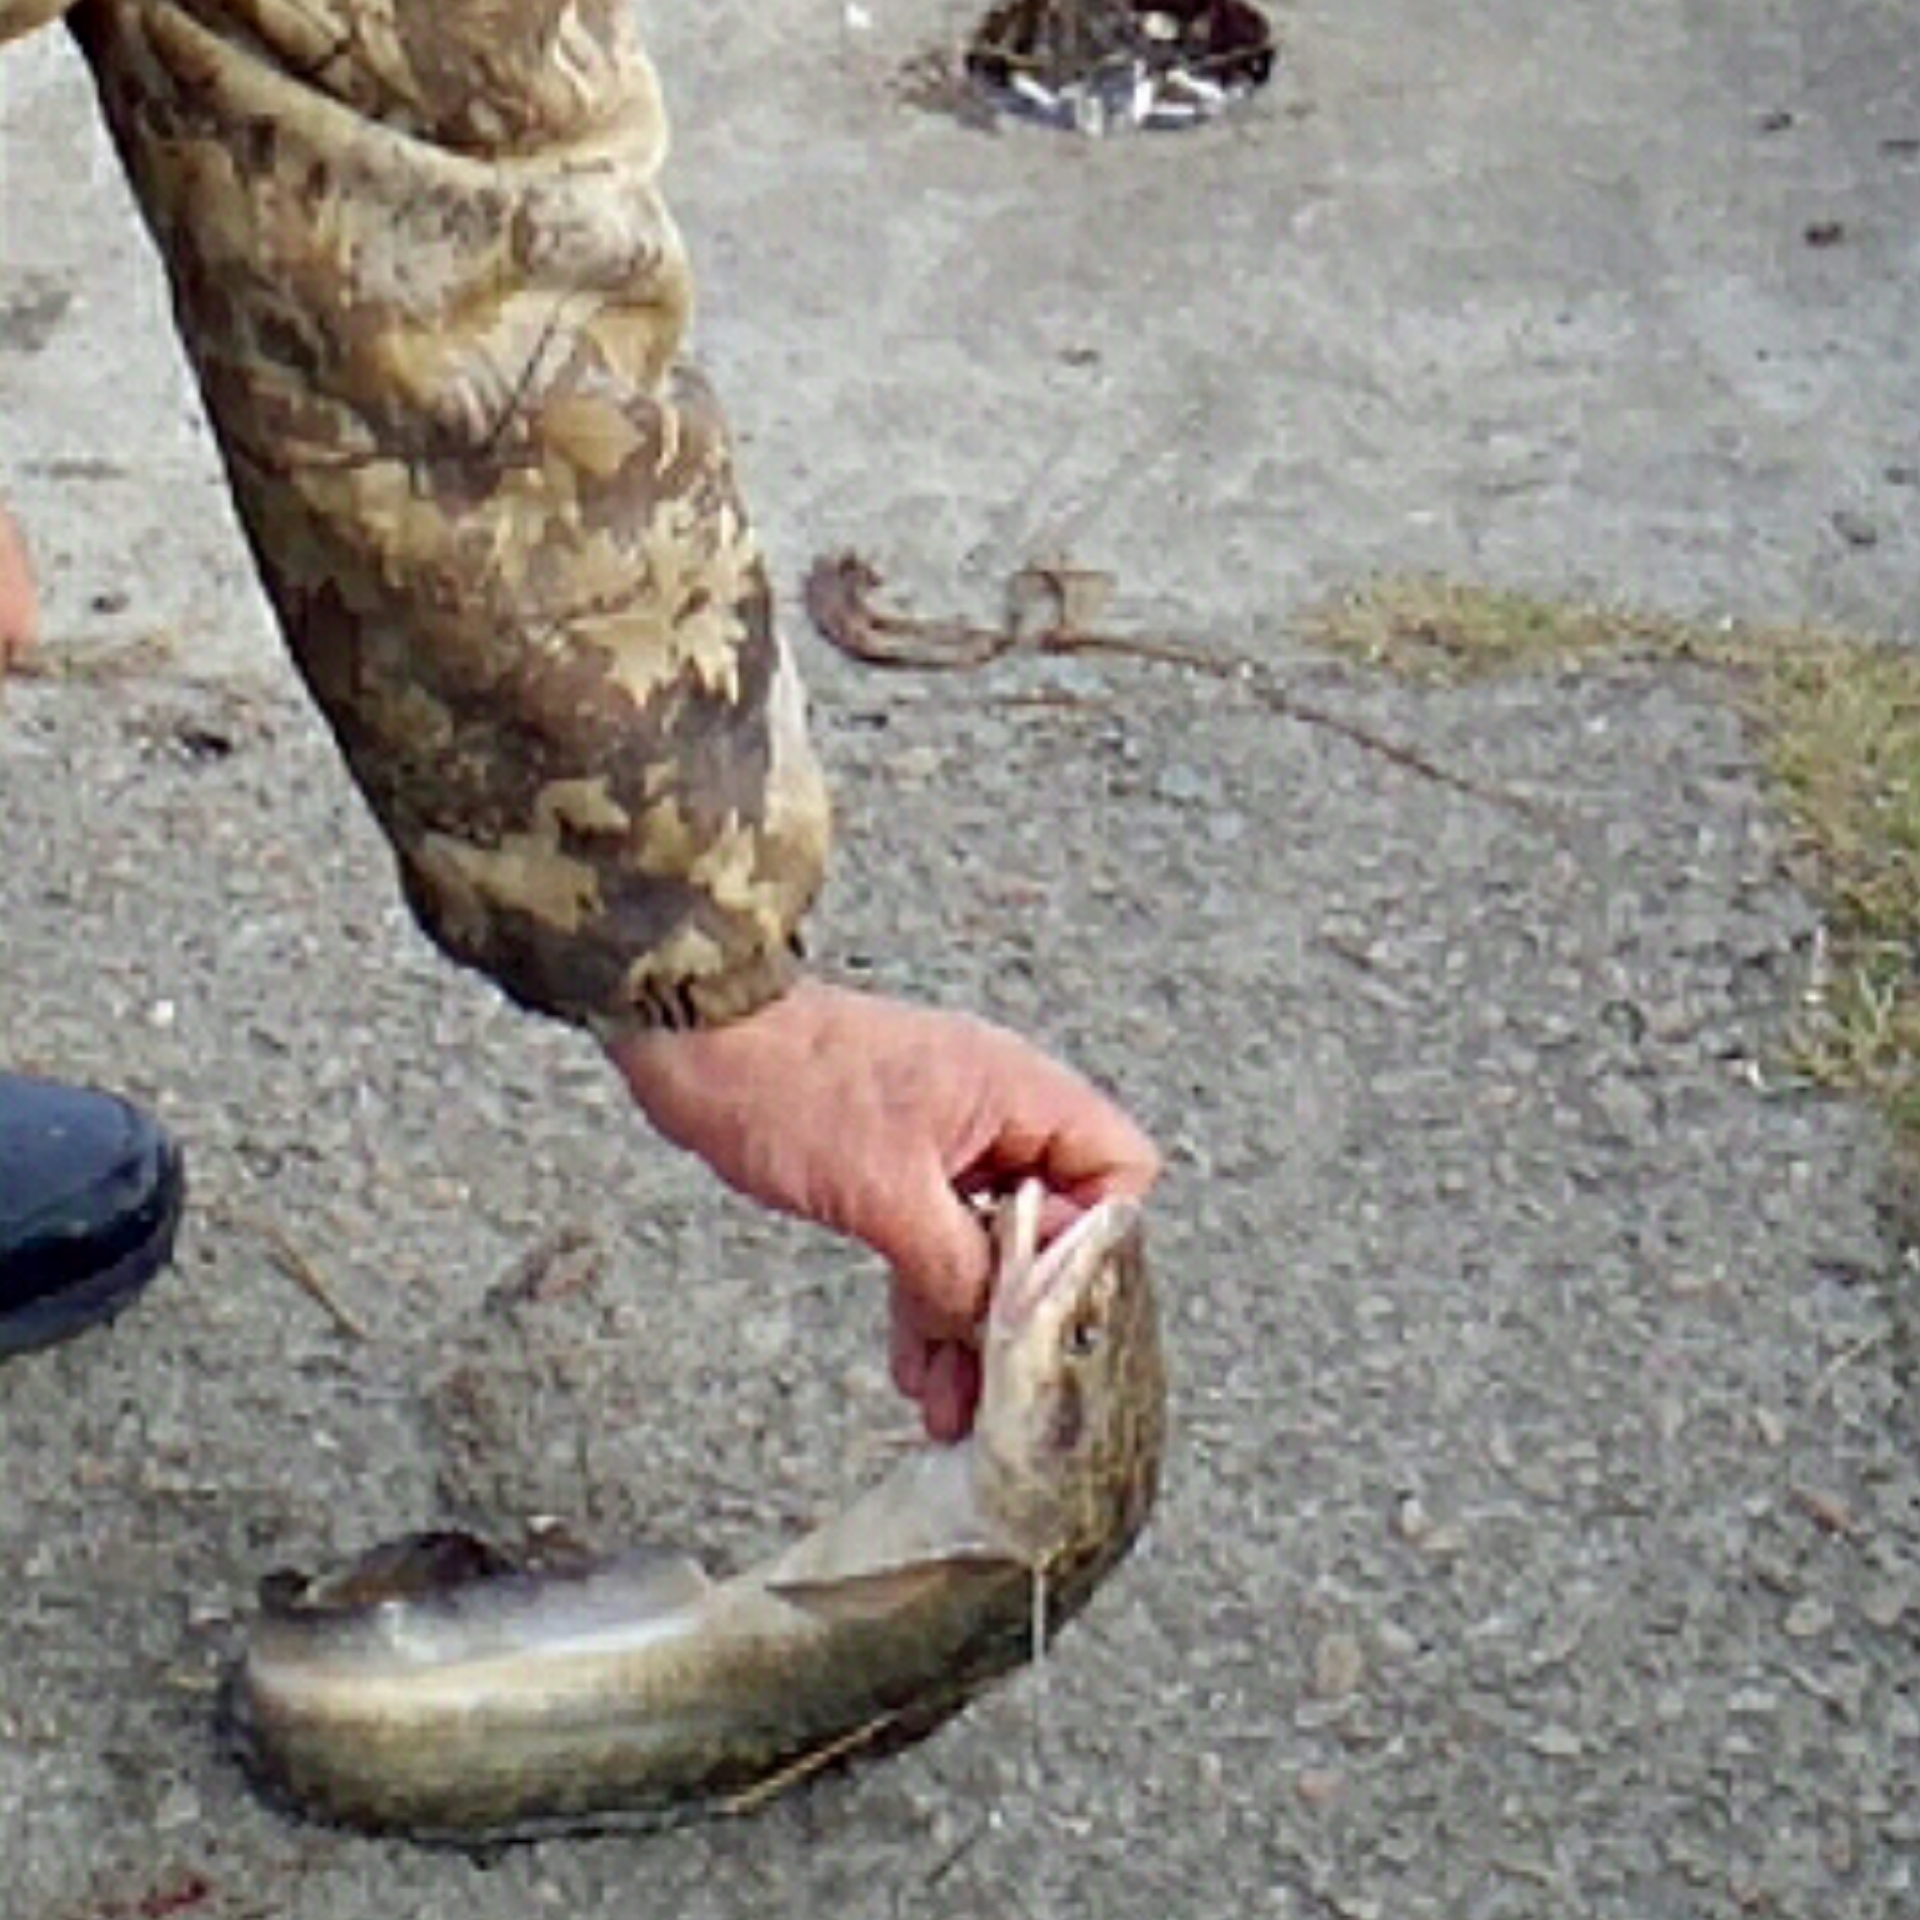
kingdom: Animalia
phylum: Chordata
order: Gadiformes
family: Lotidae
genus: Lota
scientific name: Lota lota
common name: Burbot
